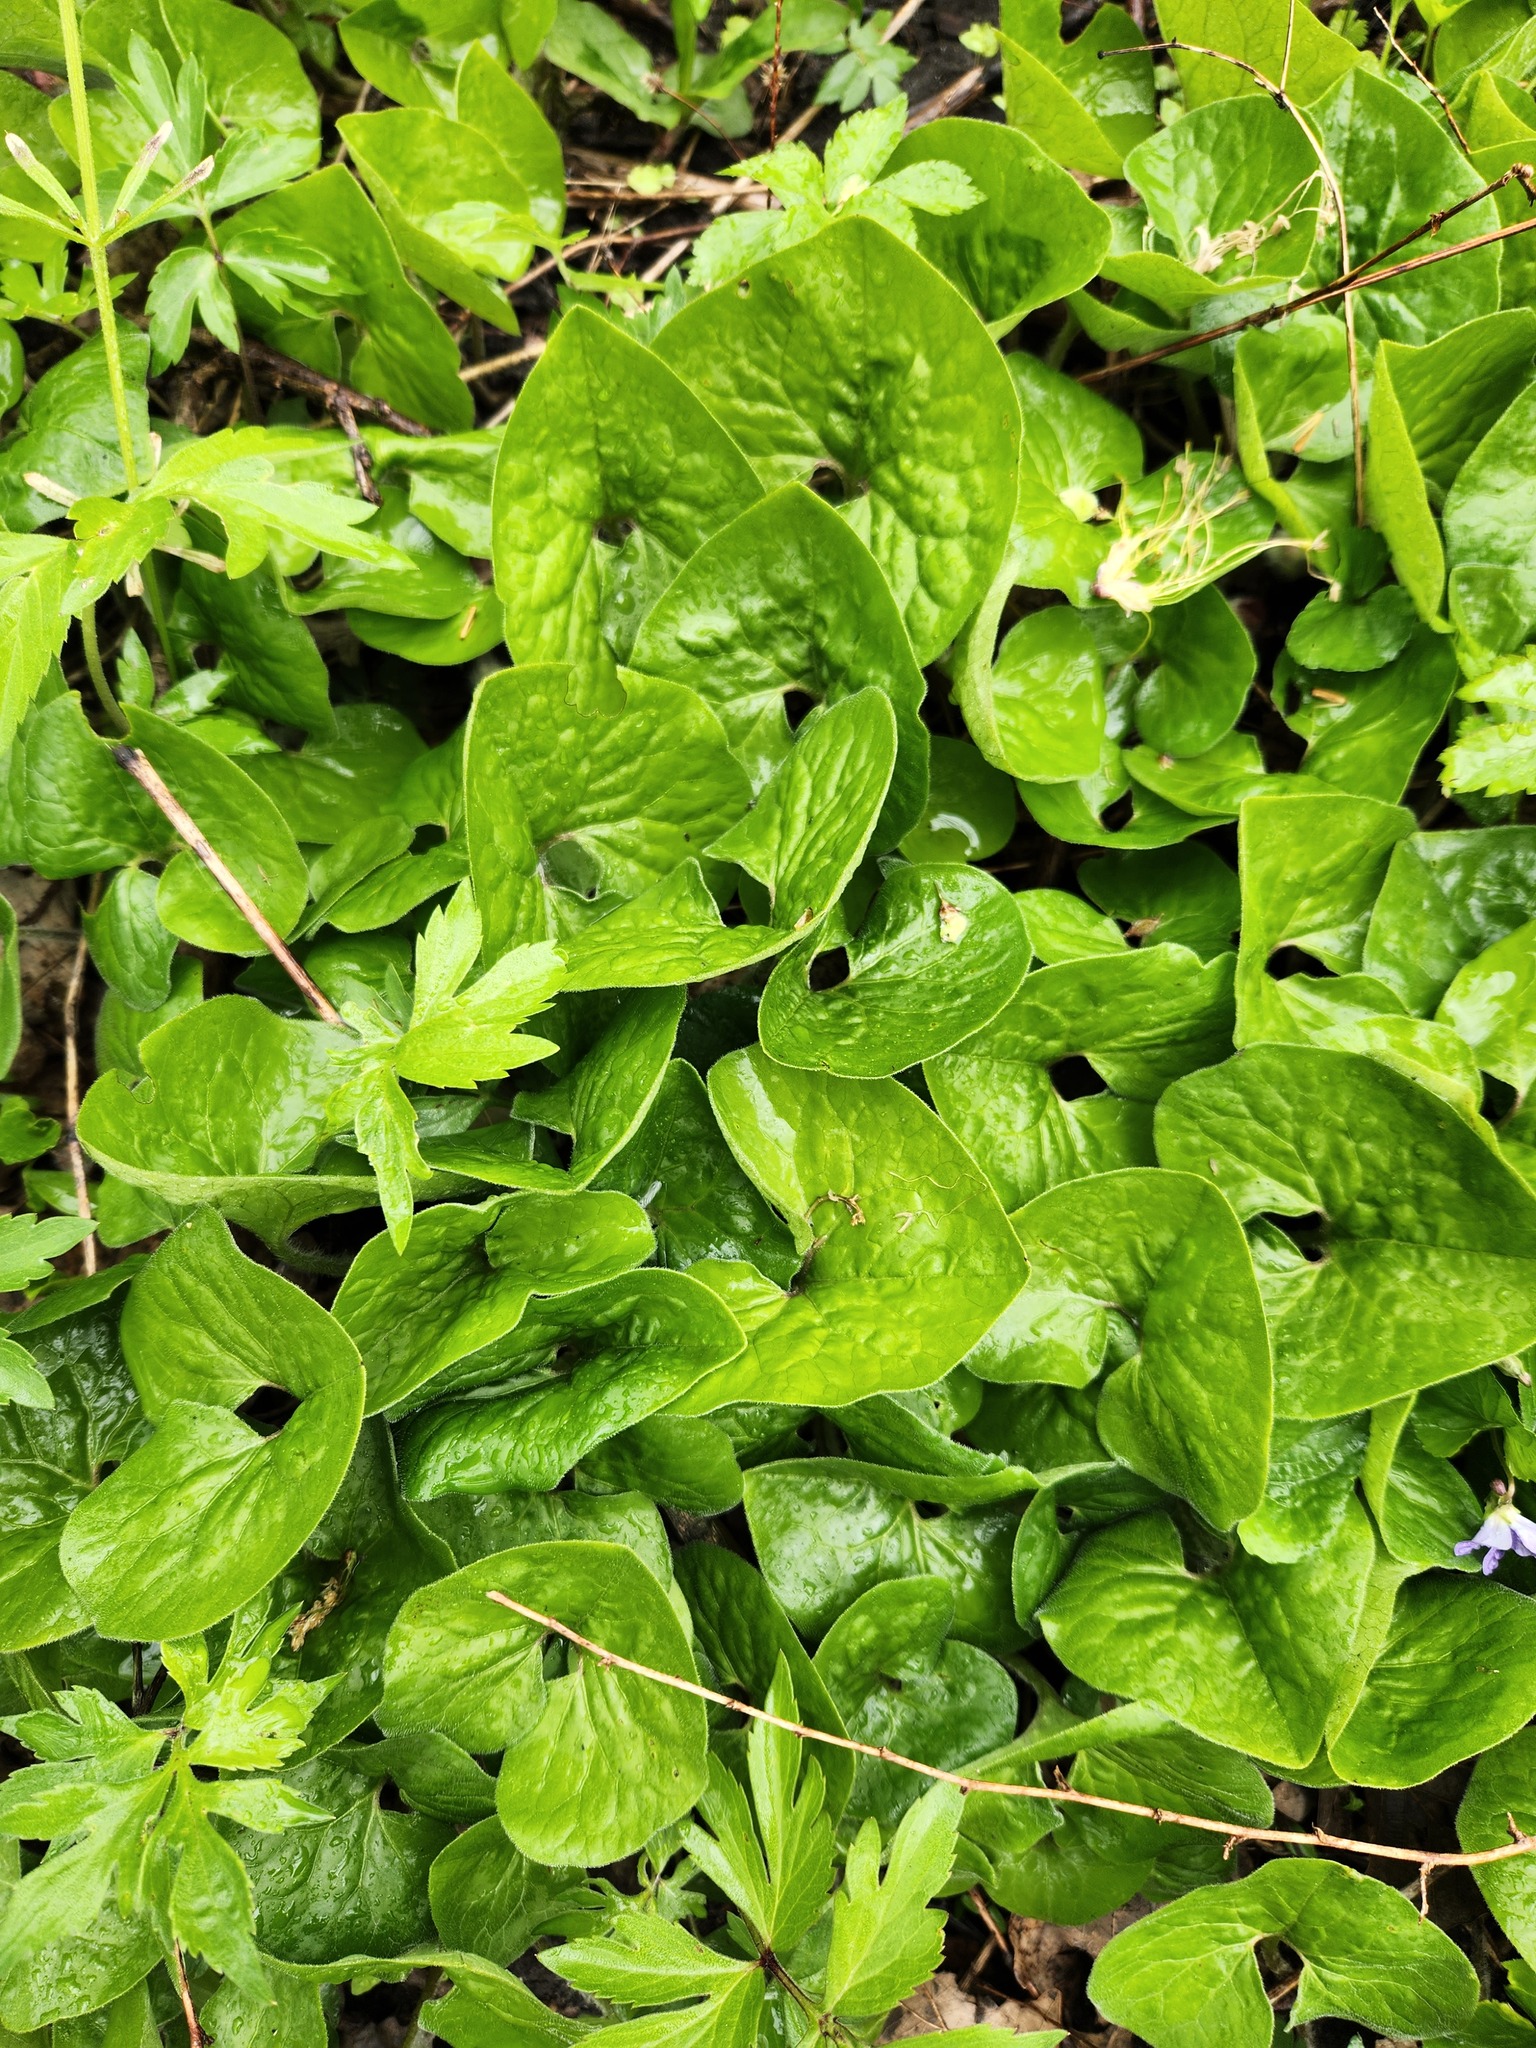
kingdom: Plantae
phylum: Tracheophyta
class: Magnoliopsida
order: Piperales
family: Aristolochiaceae
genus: Asarum
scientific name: Asarum canadense
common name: Wild ginger
